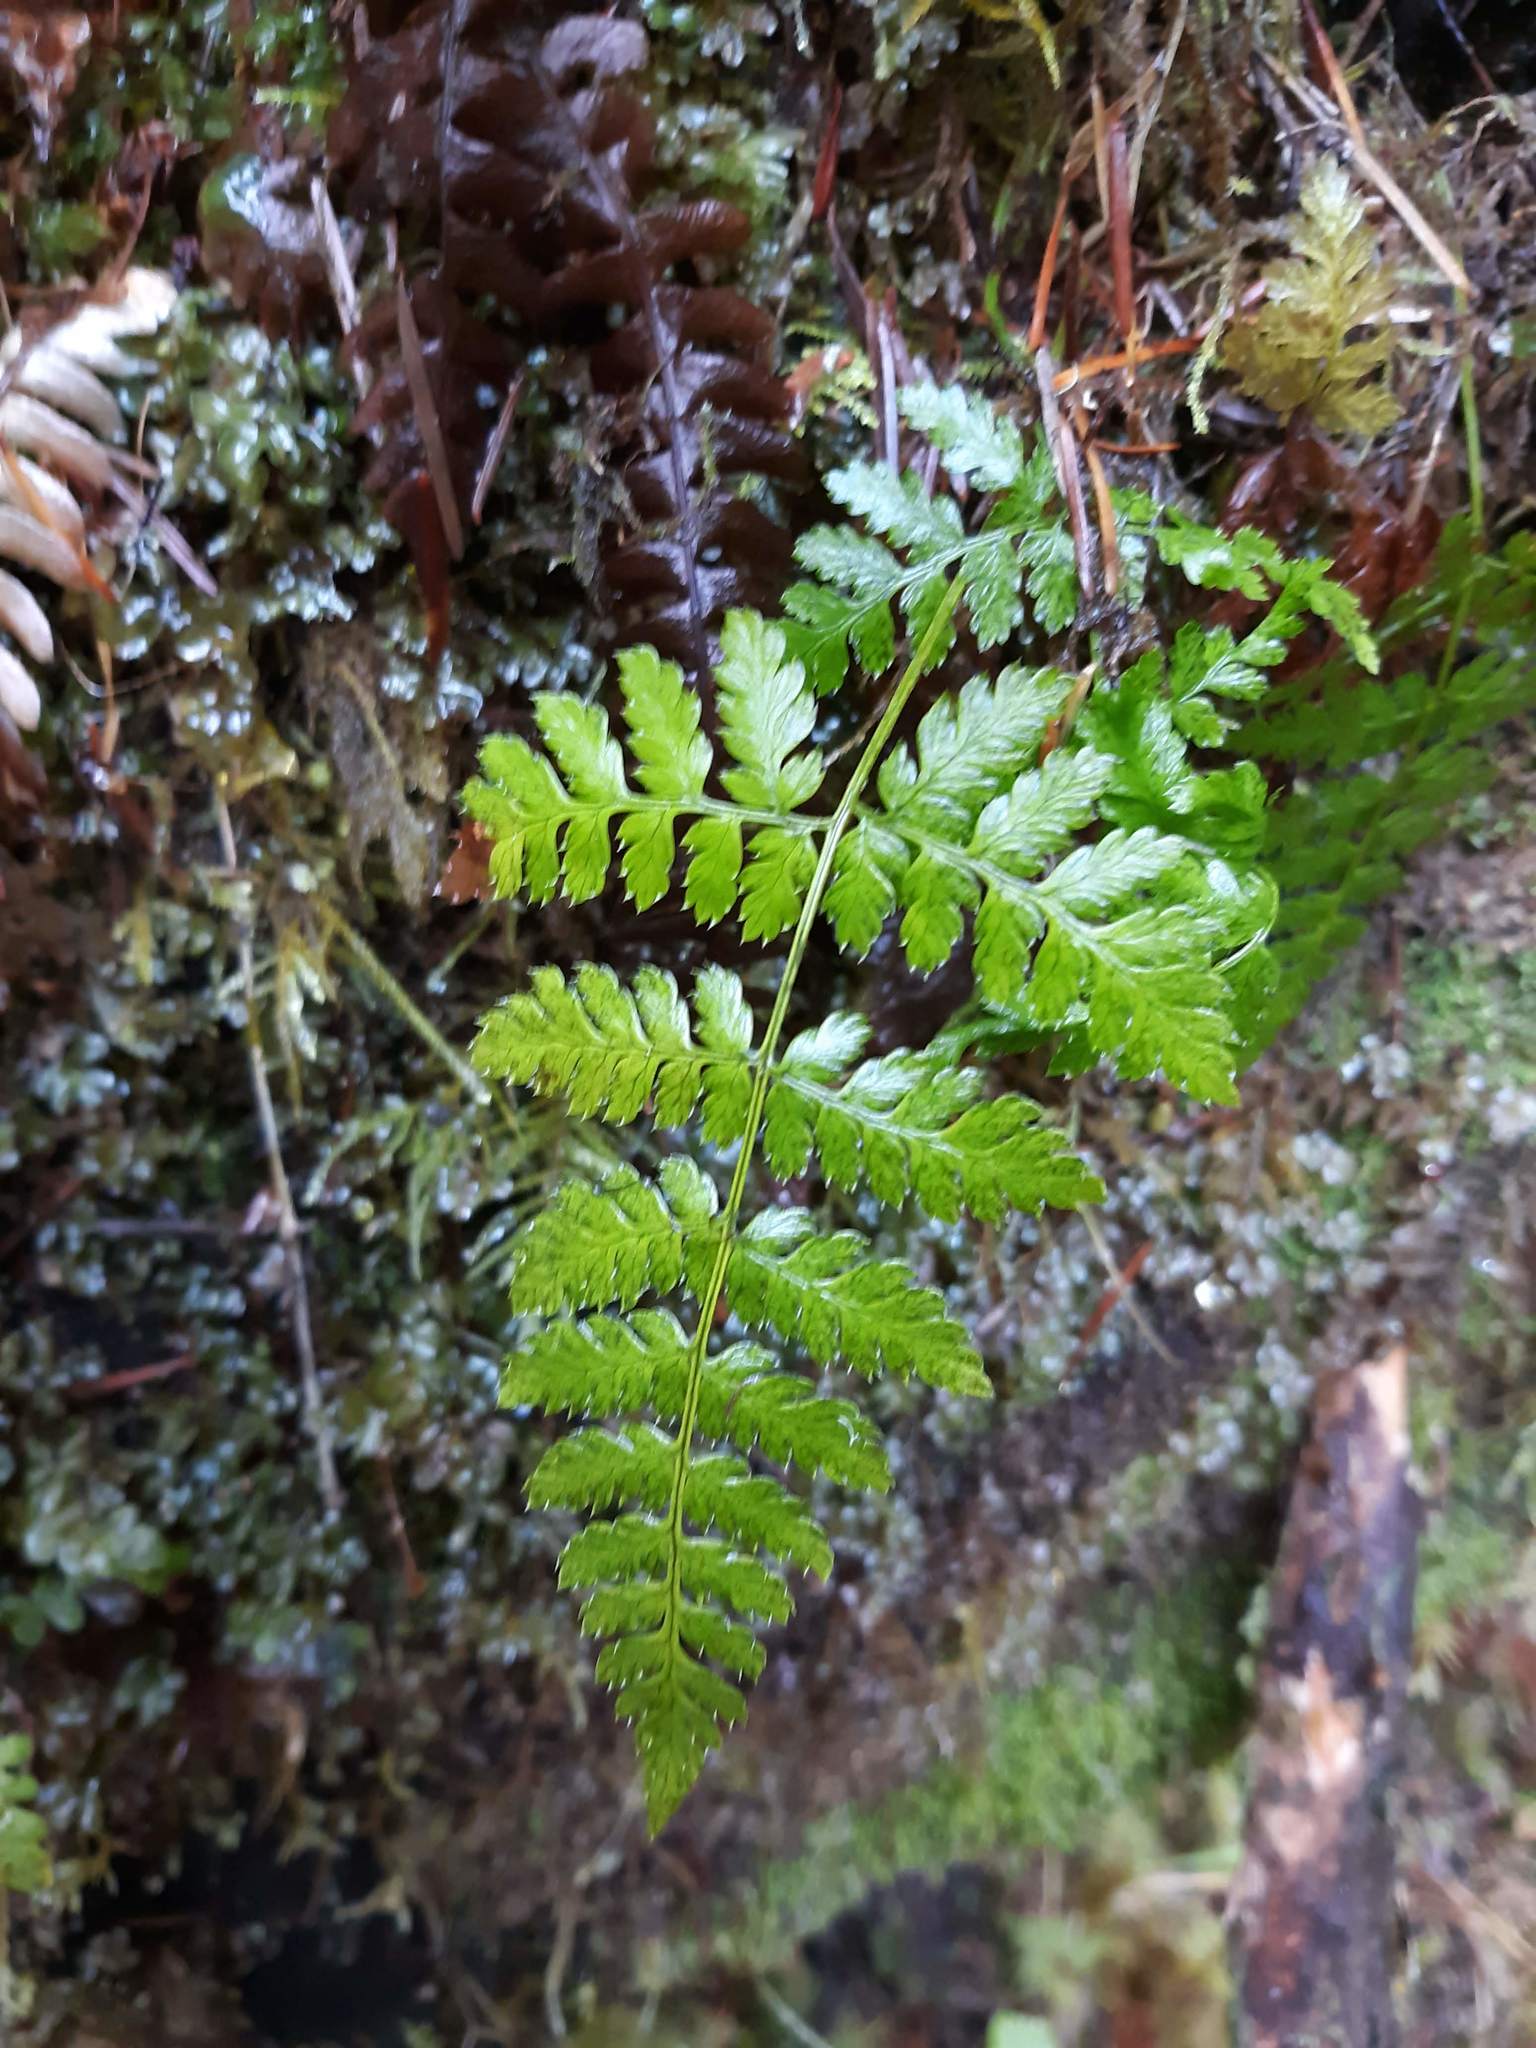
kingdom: Plantae
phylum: Tracheophyta
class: Polypodiopsida
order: Polypodiales
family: Dryopteridaceae
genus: Dryopteris
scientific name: Dryopteris expansa
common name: Northern buckler fern
